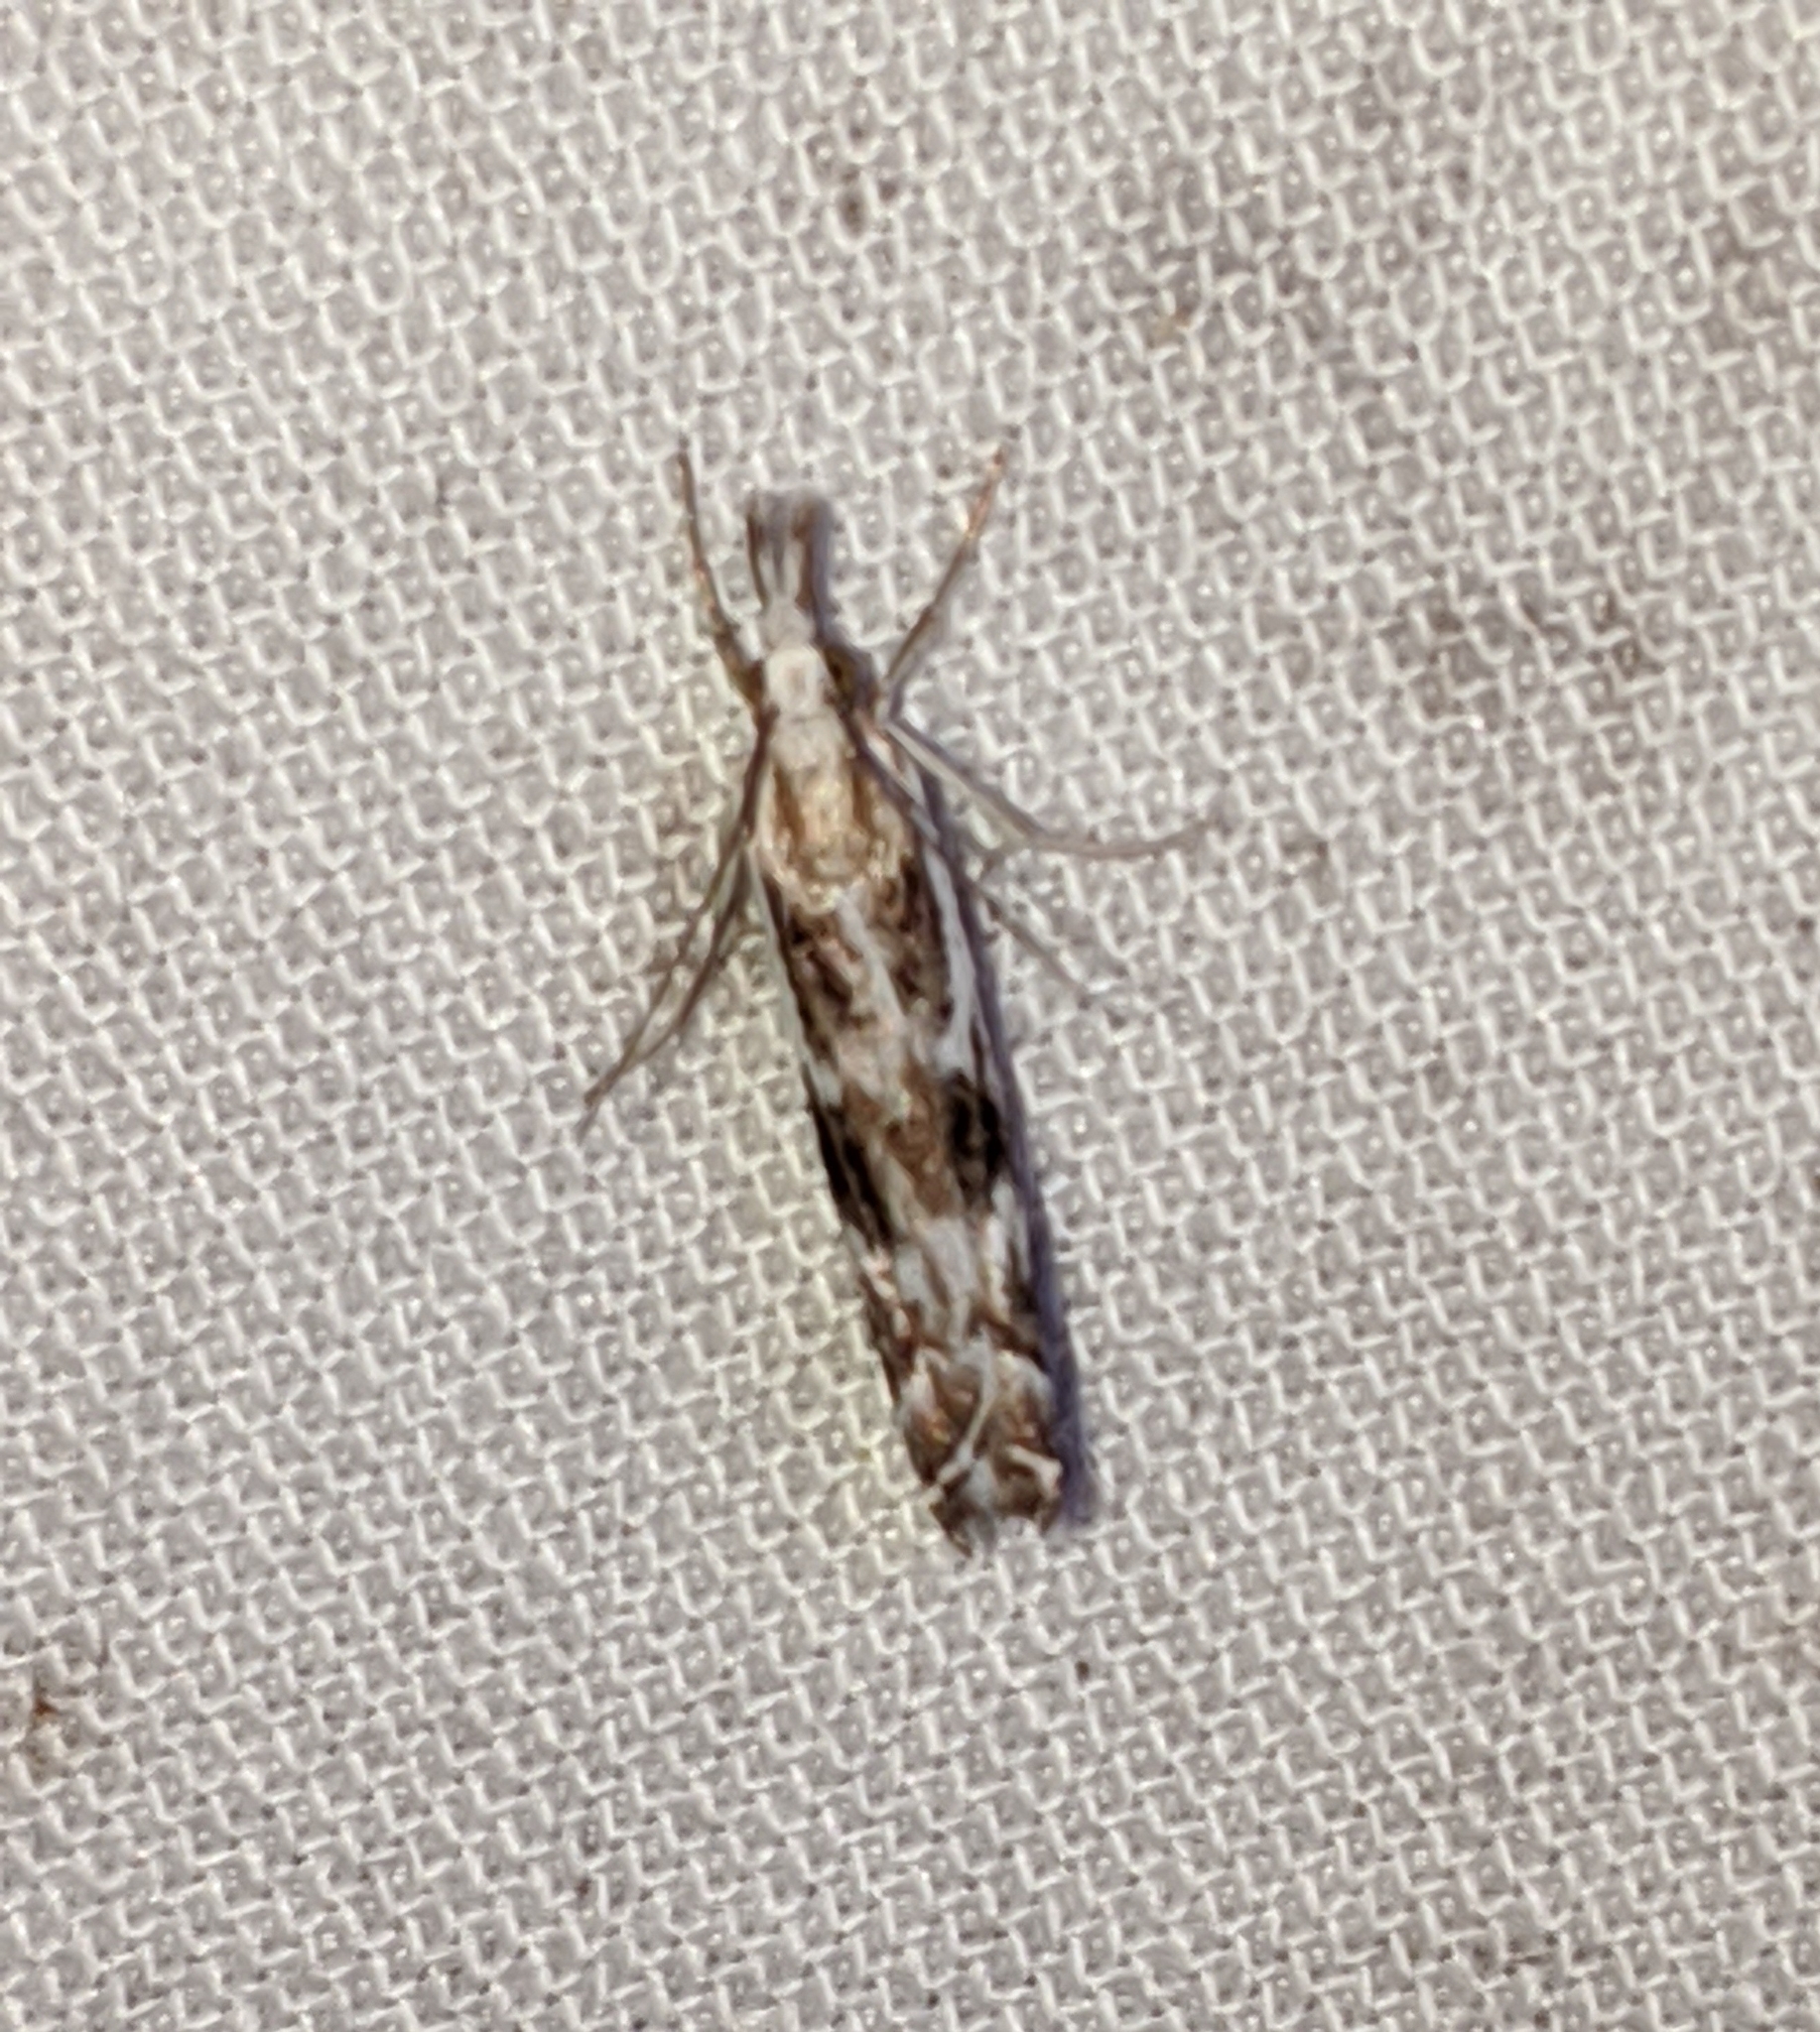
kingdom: Animalia
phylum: Arthropoda
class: Insecta
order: Lepidoptera
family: Crambidae
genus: Catoptria
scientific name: Catoptria oregonicus
